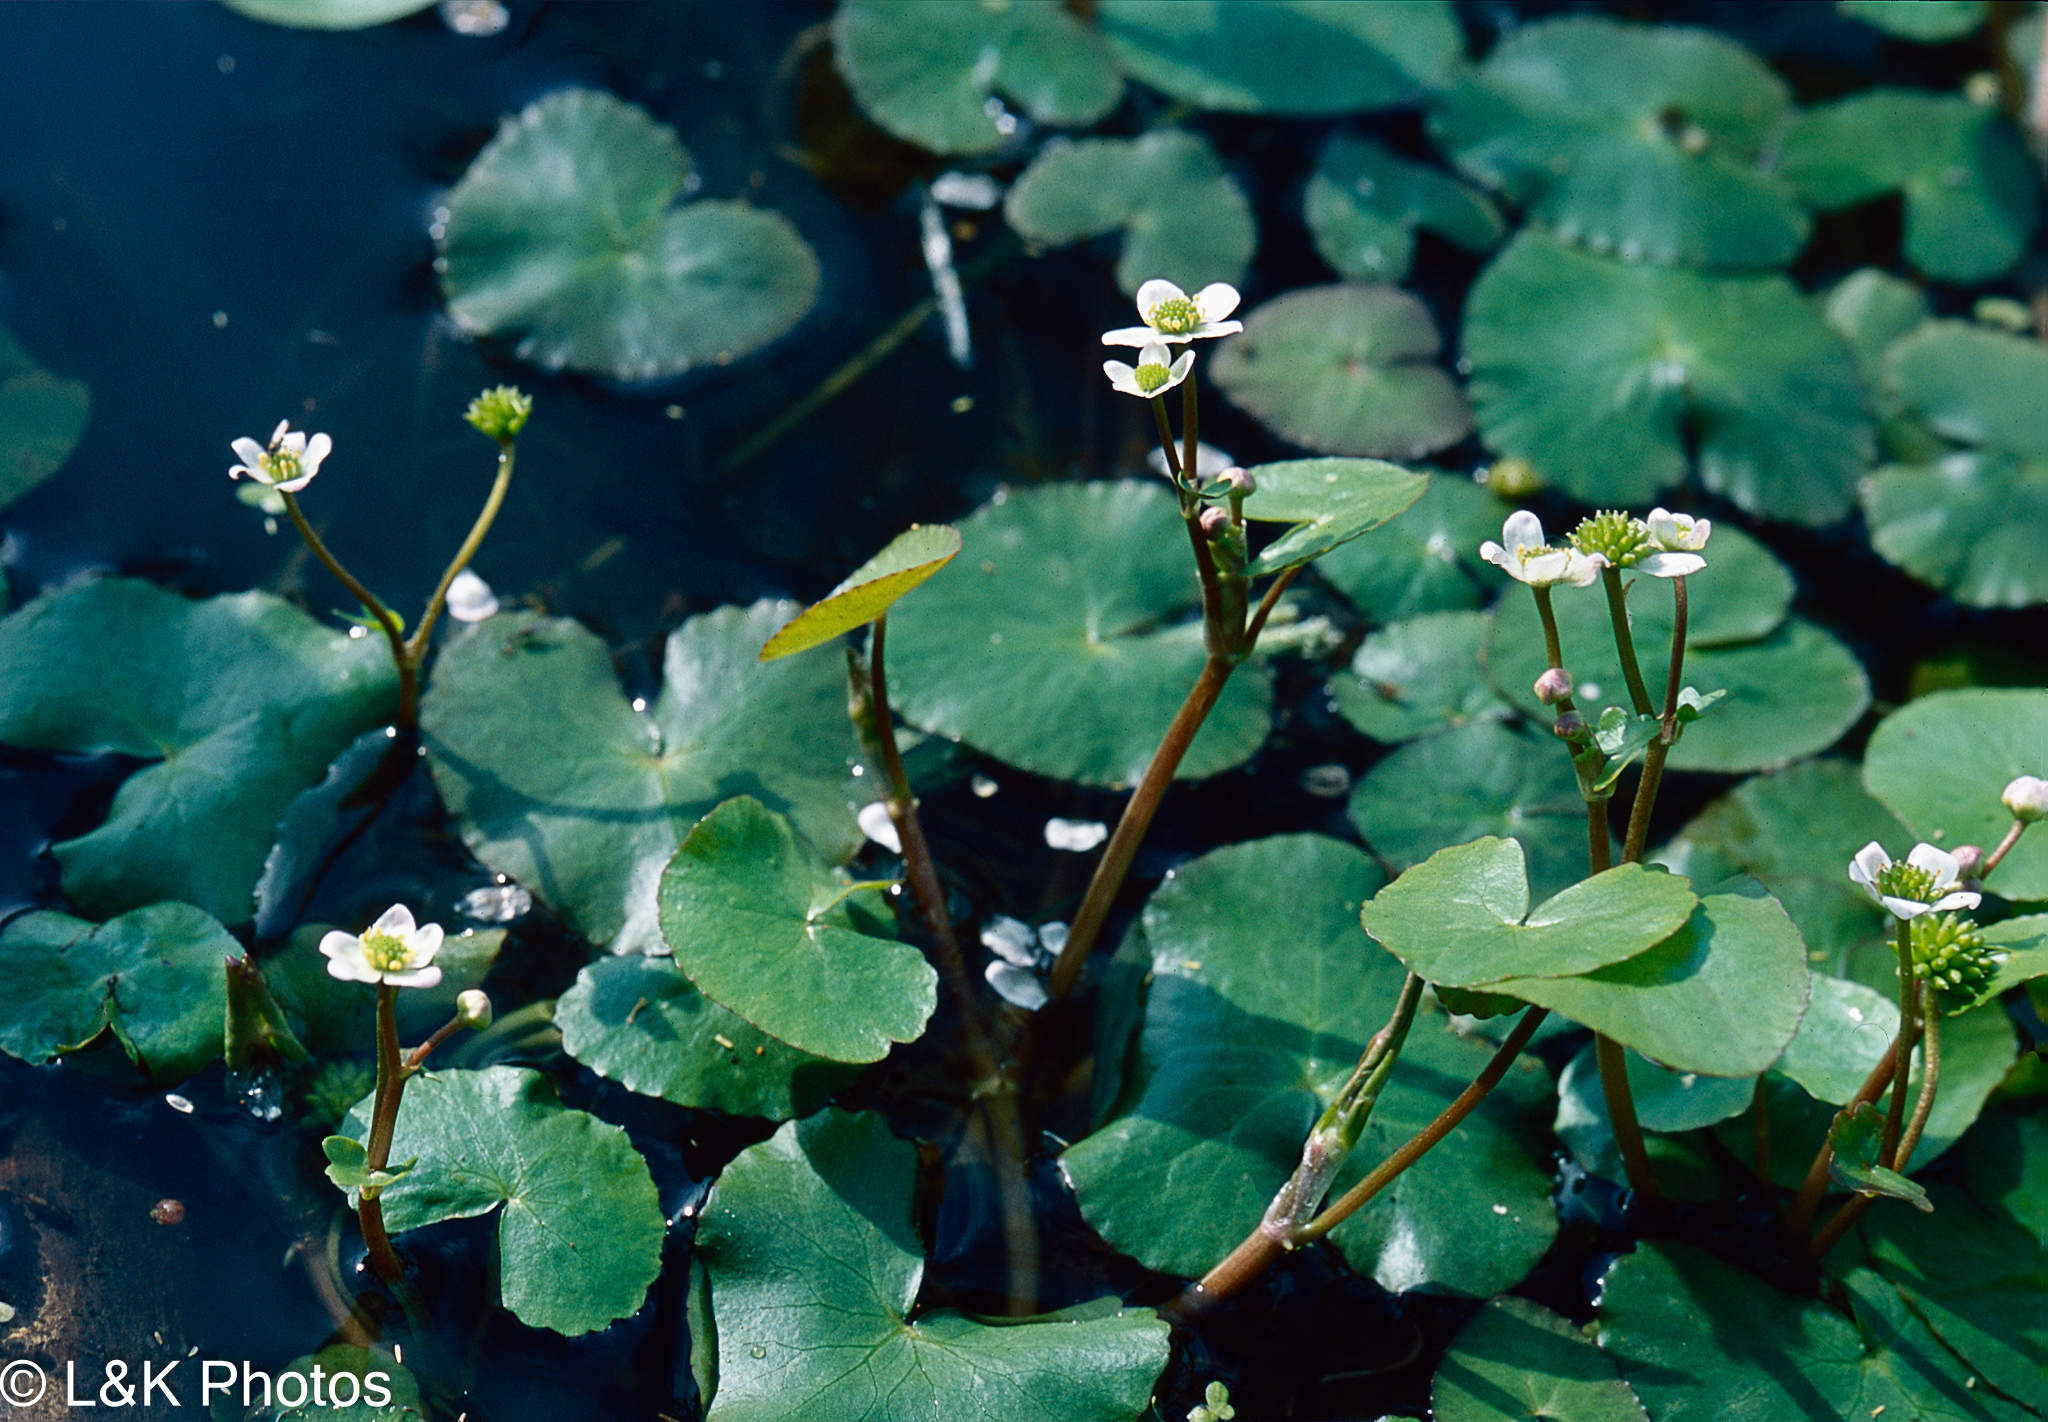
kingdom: Plantae
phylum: Tracheophyta
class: Magnoliopsida
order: Ranunculales
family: Ranunculaceae
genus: Caltha
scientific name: Caltha natans
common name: Floating marsh marigold
